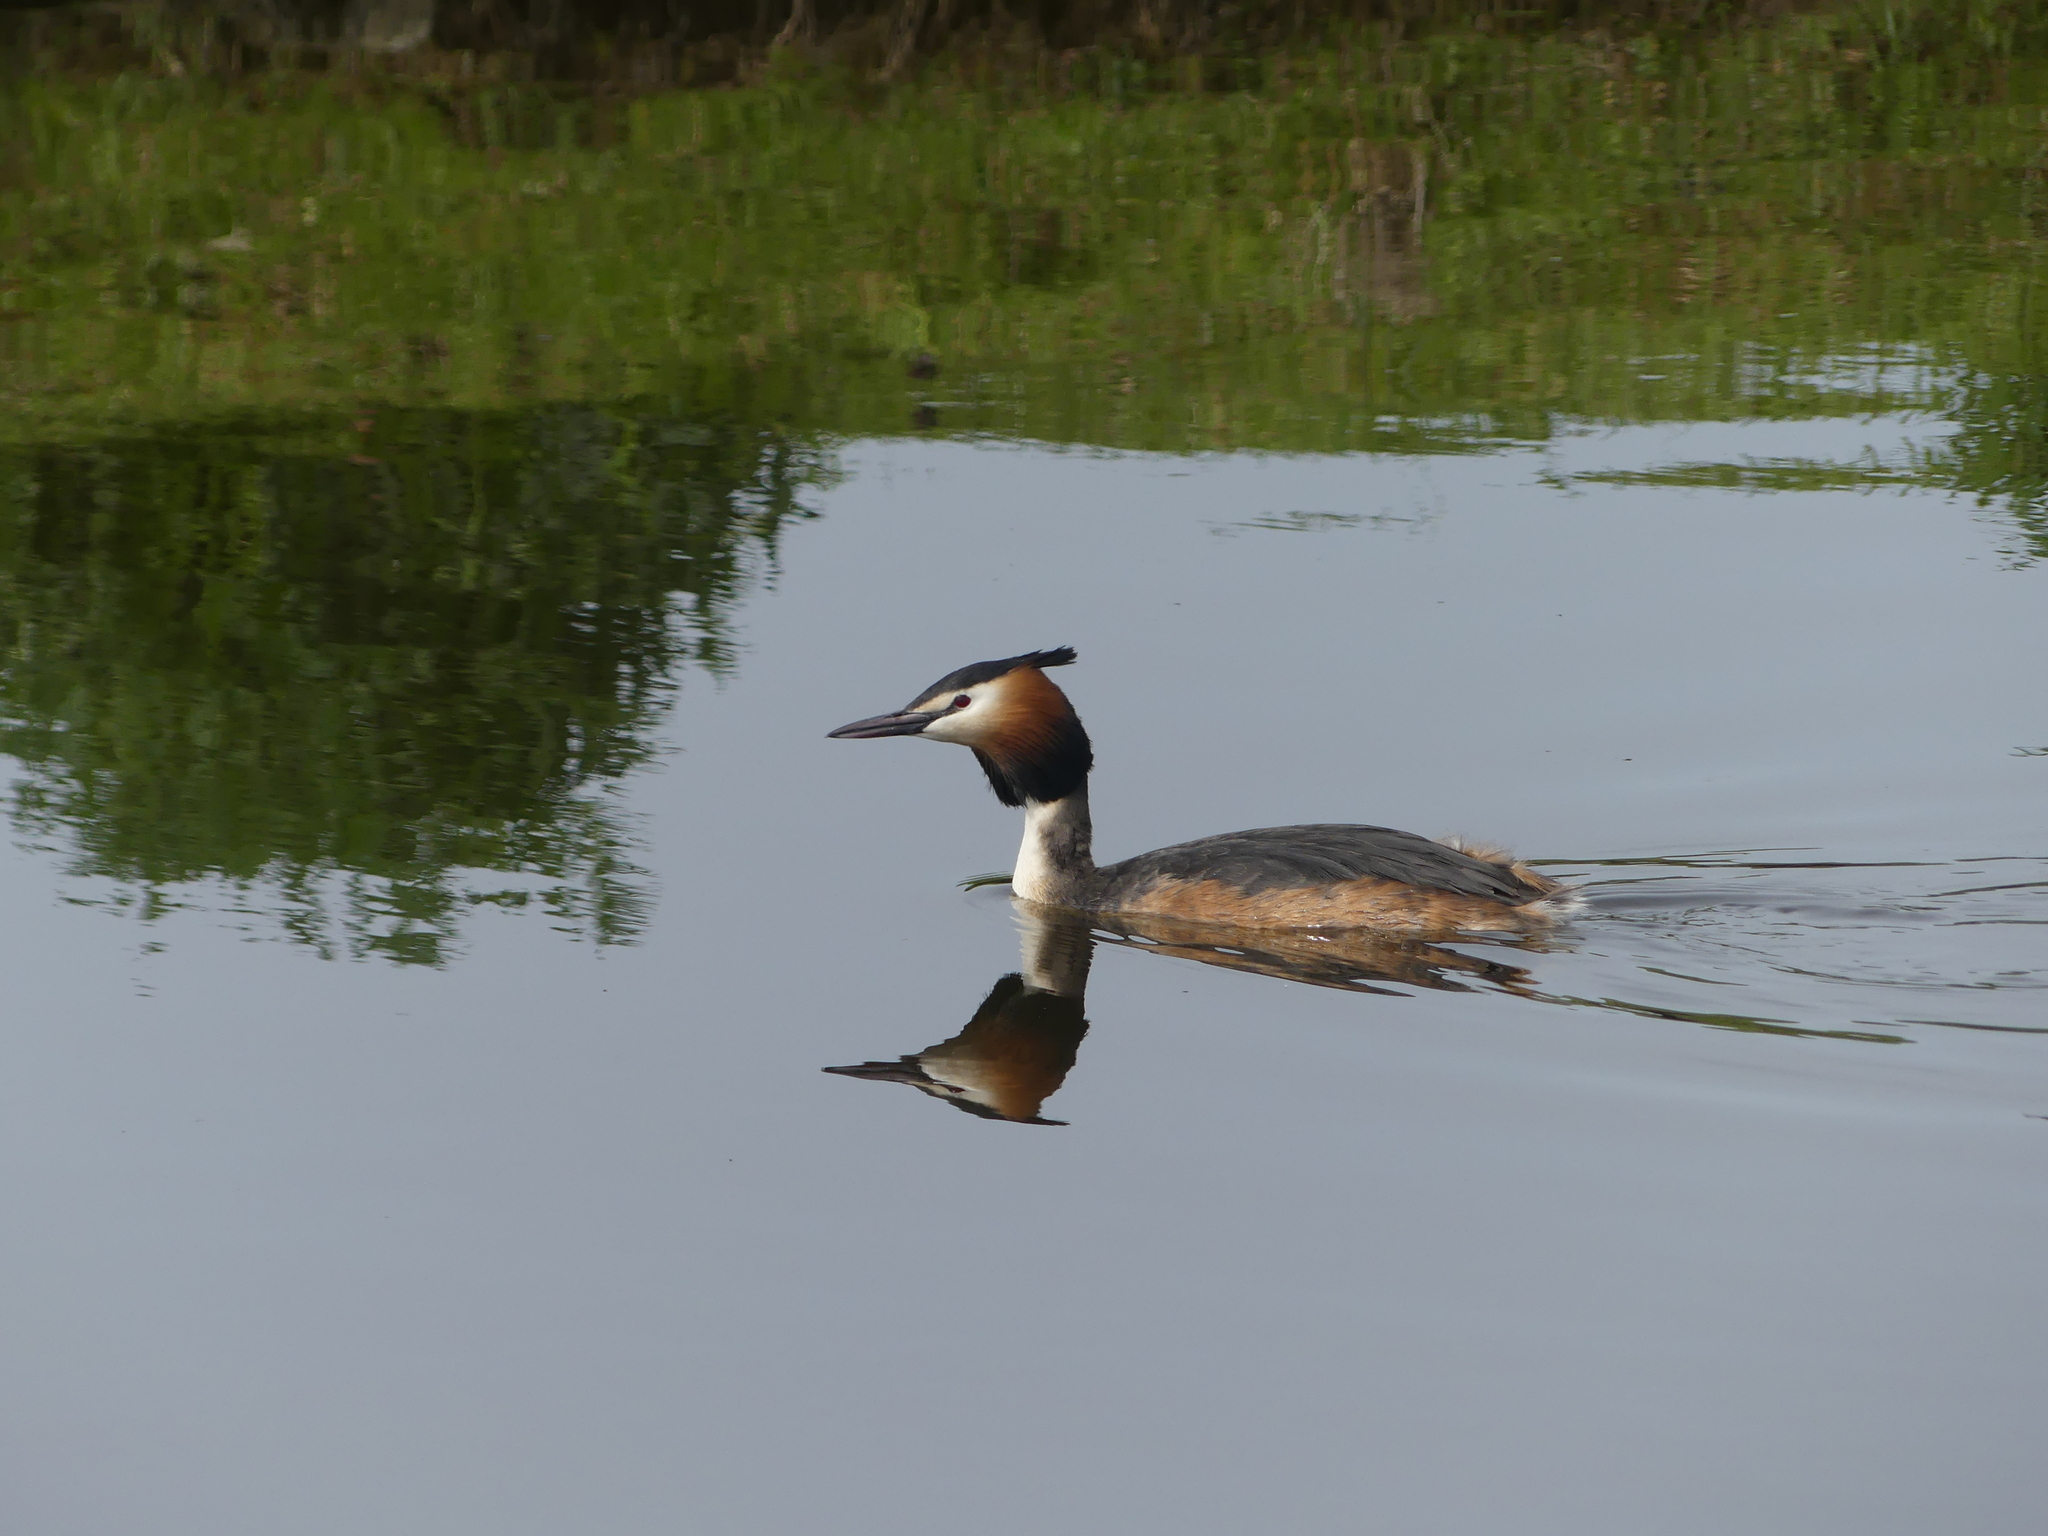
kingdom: Animalia
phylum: Chordata
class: Aves
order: Podicipediformes
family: Podicipedidae
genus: Podiceps
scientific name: Podiceps cristatus
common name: Great crested grebe
